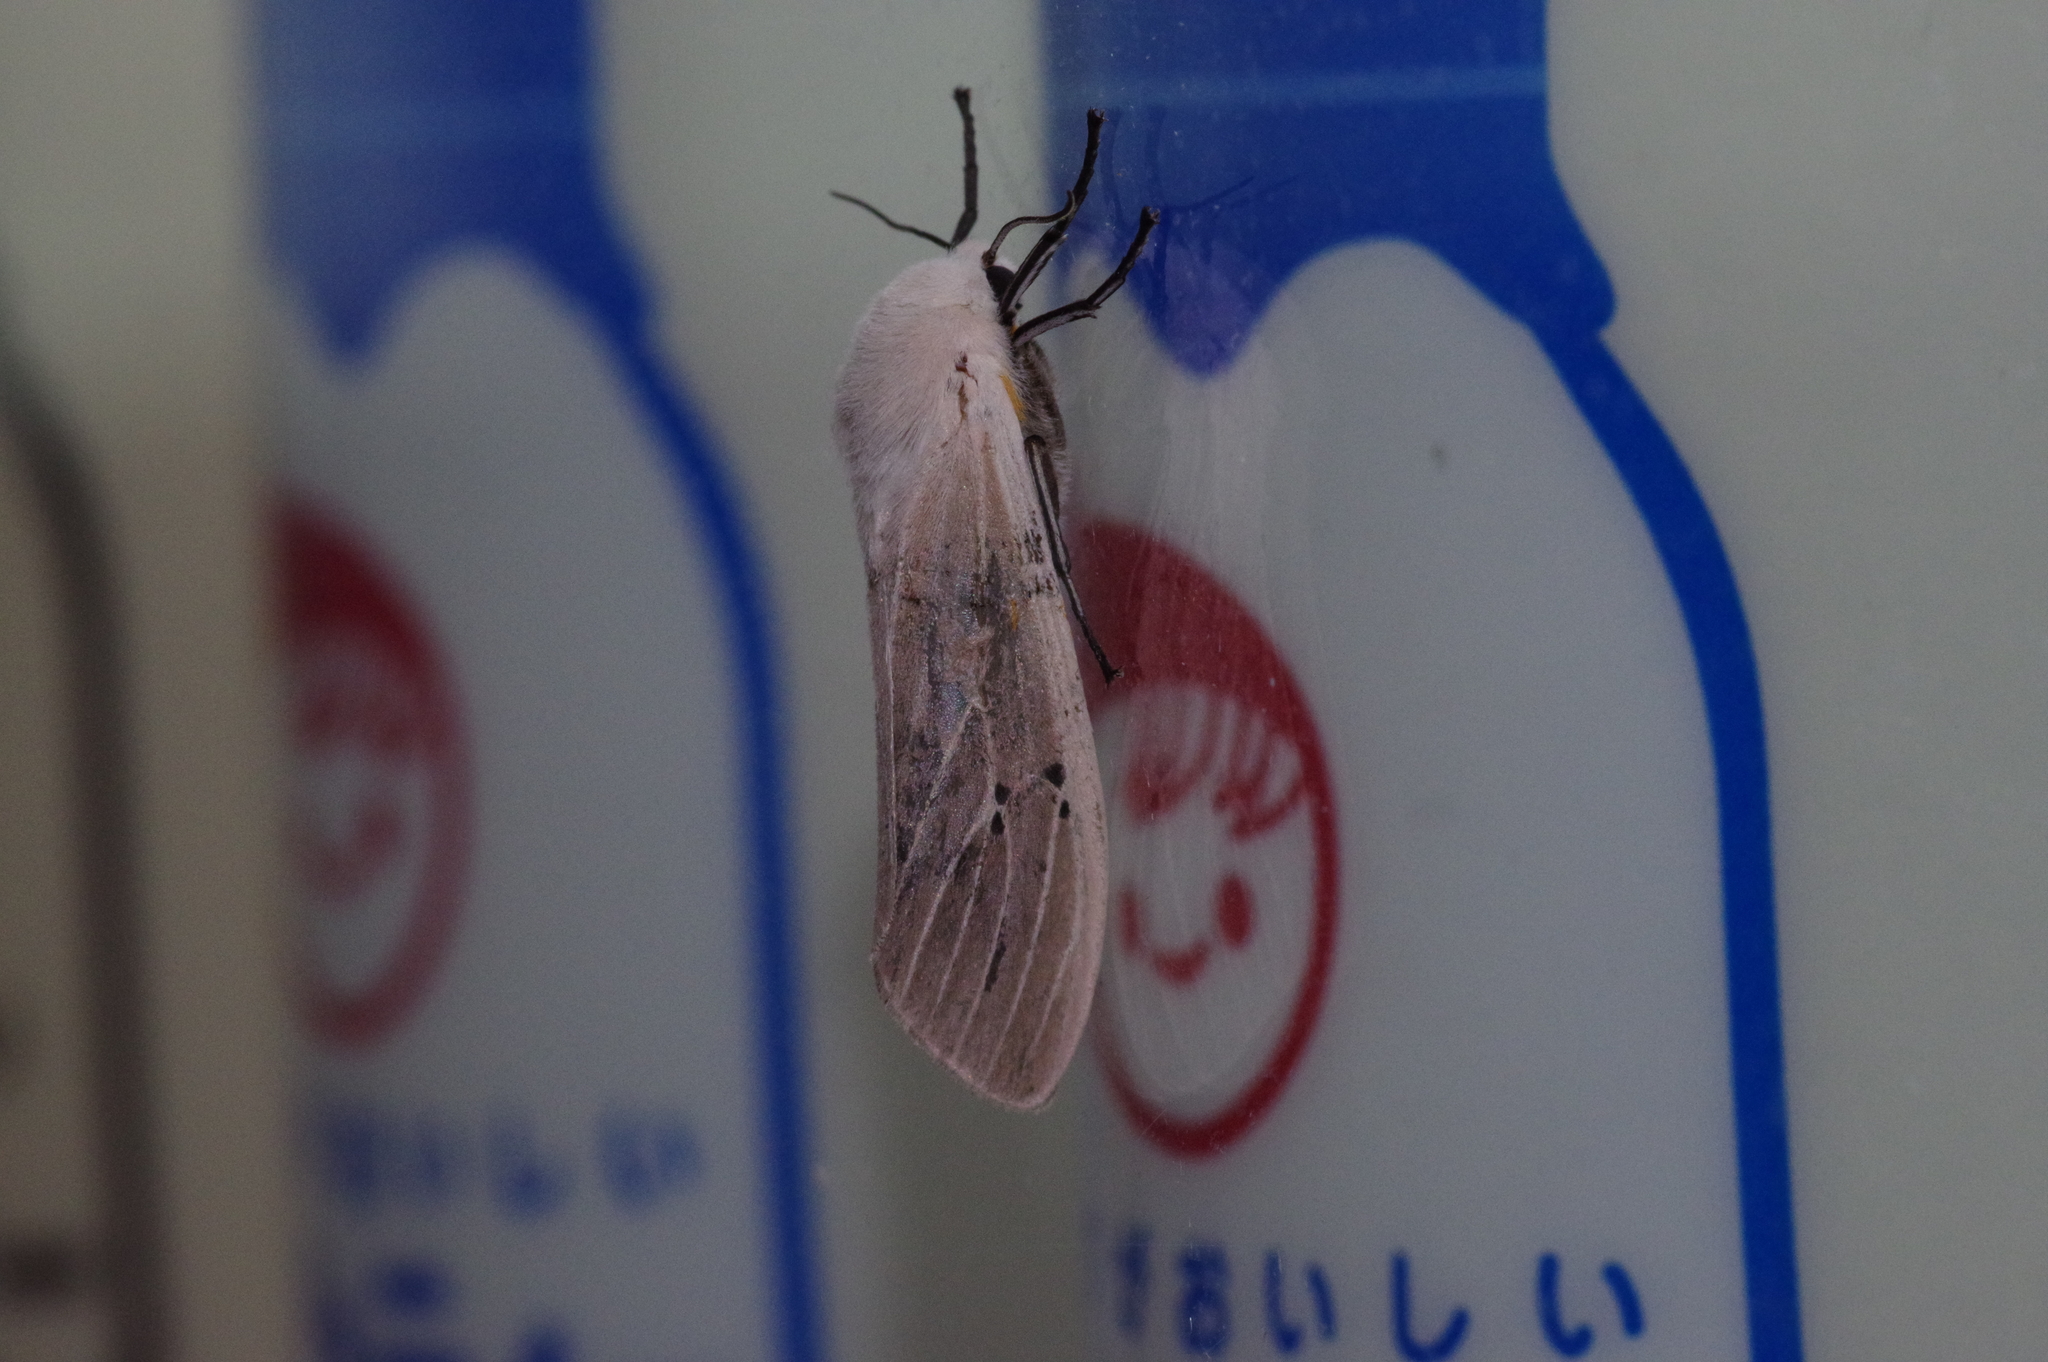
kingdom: Animalia
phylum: Arthropoda
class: Insecta
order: Lepidoptera
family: Erebidae
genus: Creatonotos
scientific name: Creatonotos transiens
